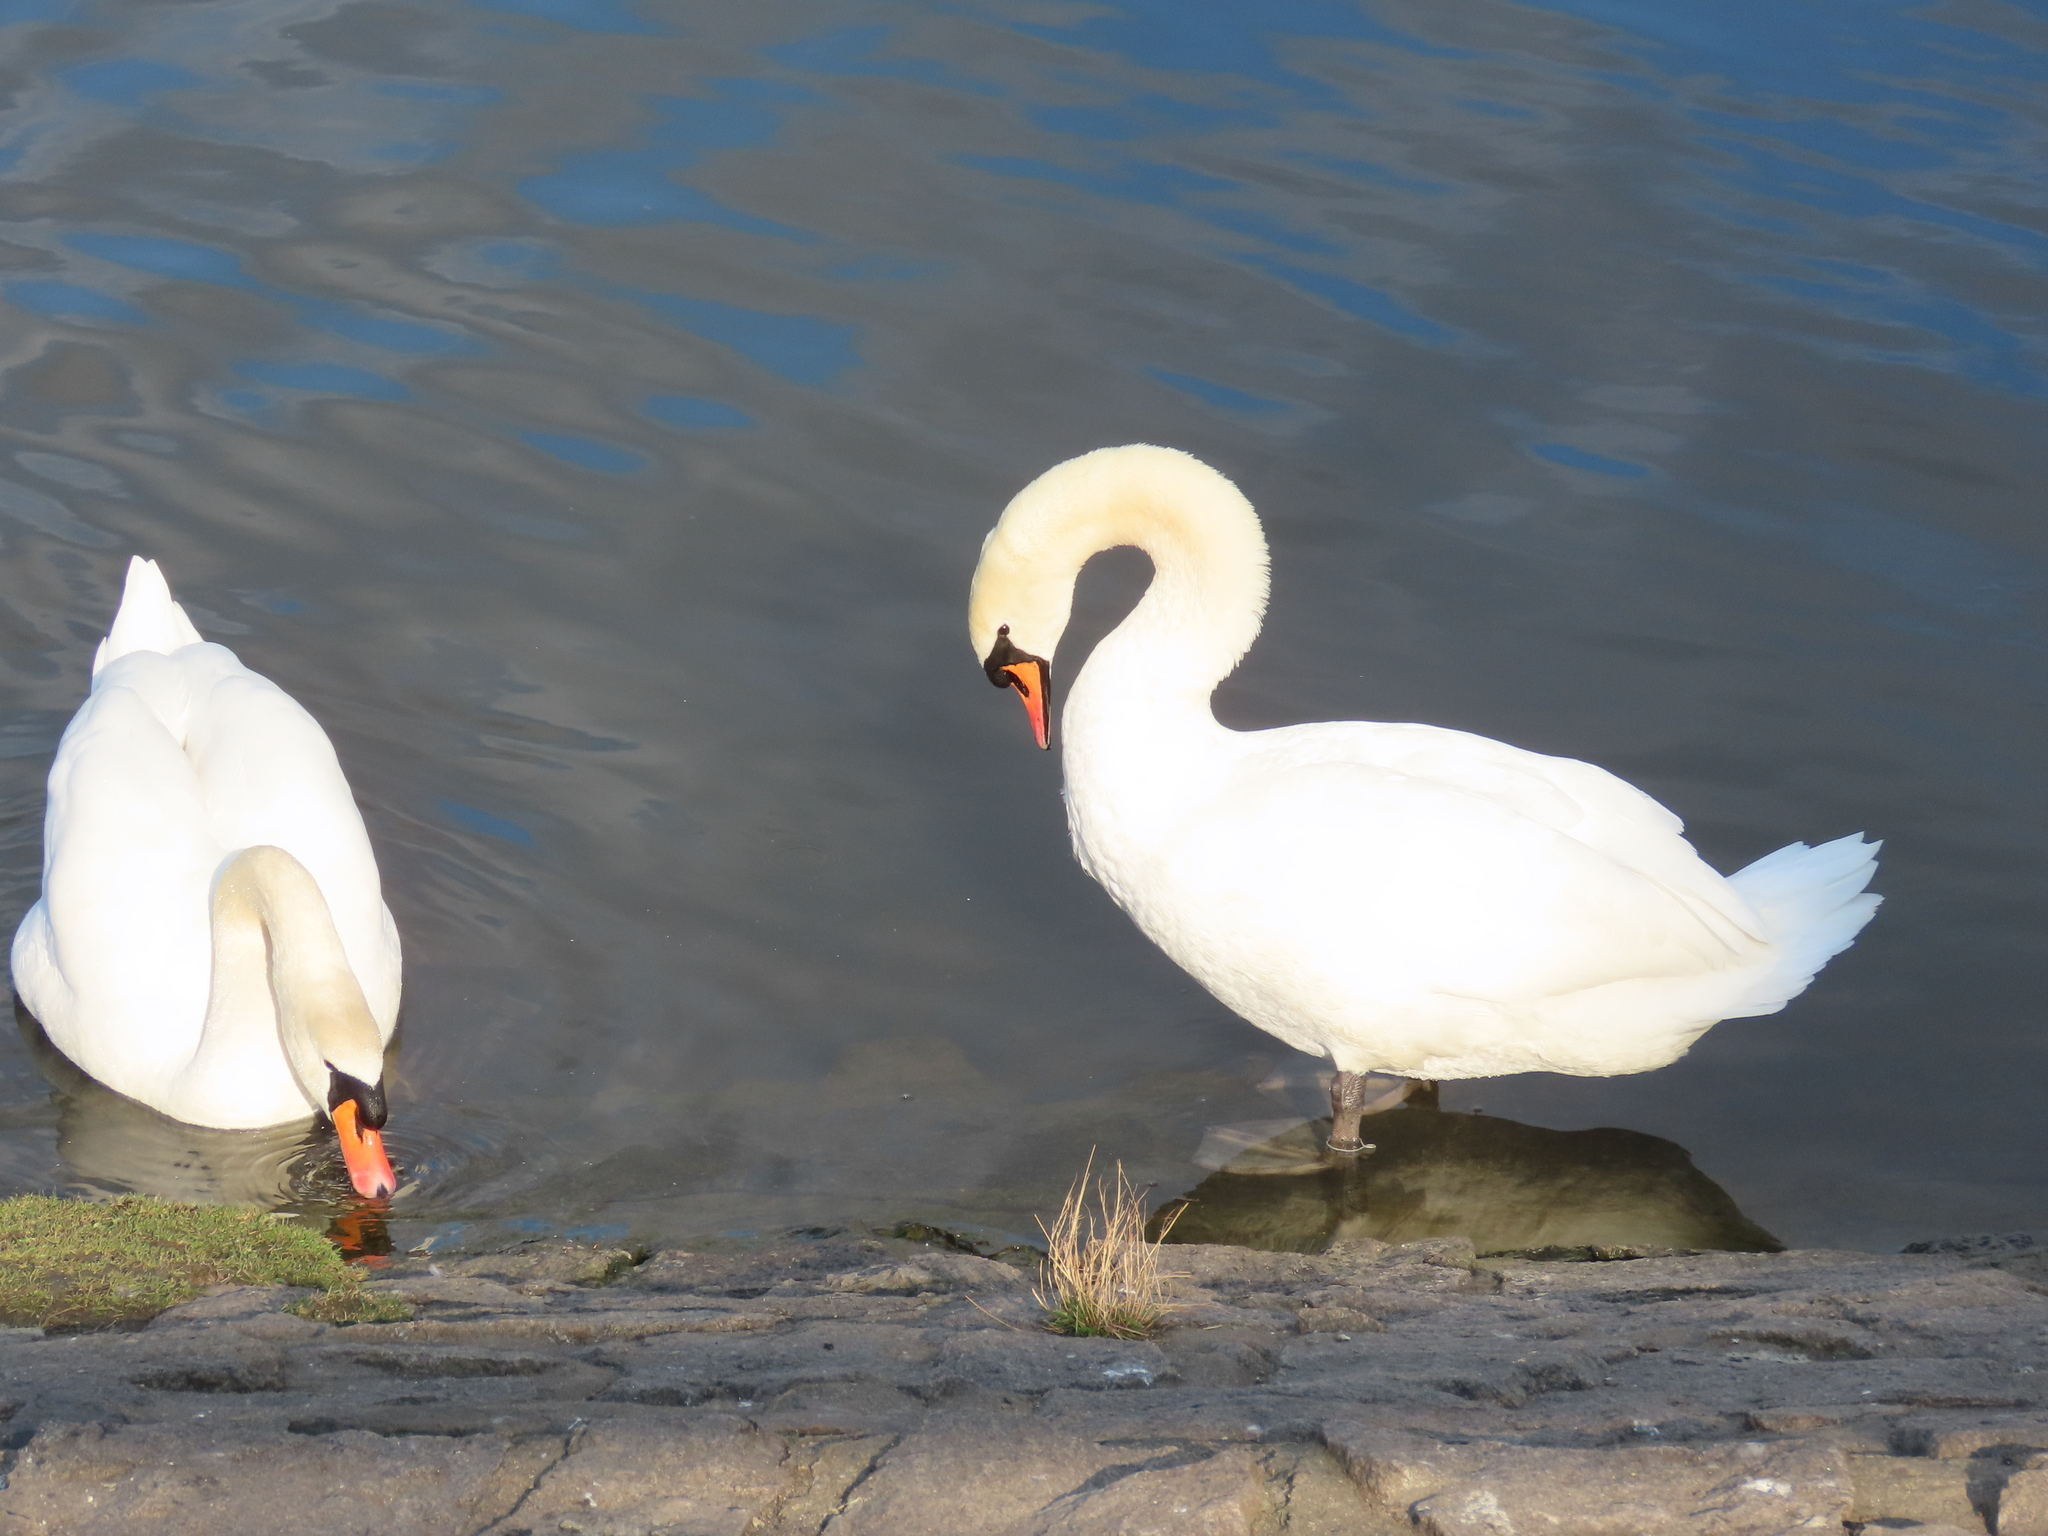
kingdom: Animalia
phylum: Chordata
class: Aves
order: Anseriformes
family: Anatidae
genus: Cygnus
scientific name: Cygnus olor
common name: Mute swan
